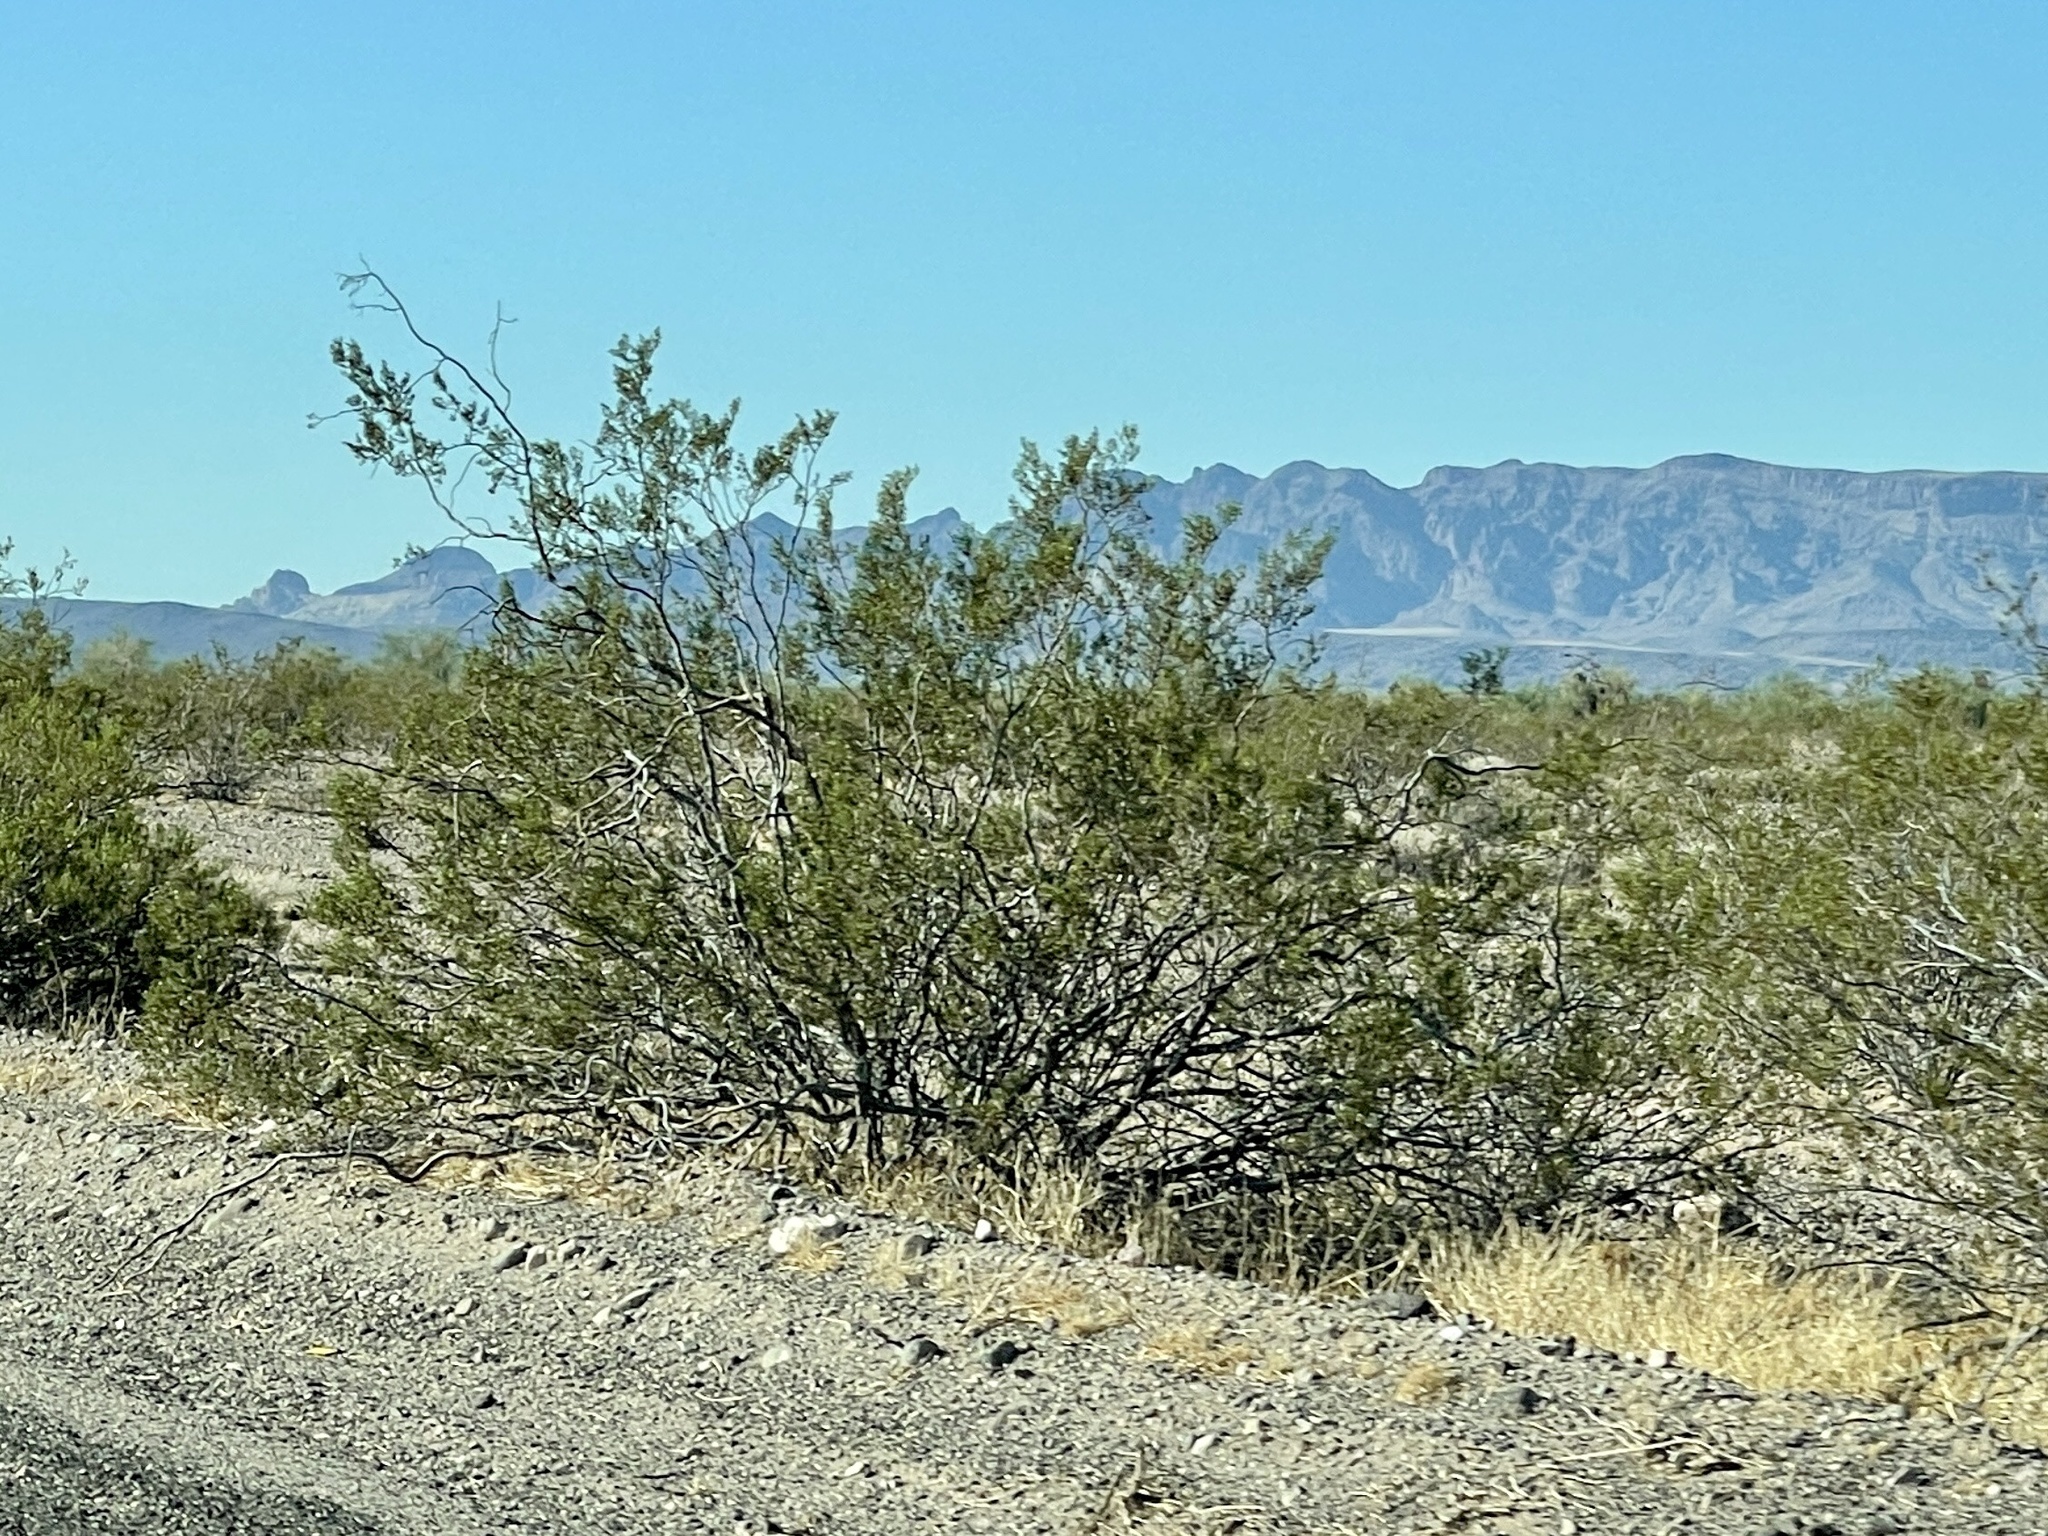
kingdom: Plantae
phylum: Tracheophyta
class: Magnoliopsida
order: Zygophyllales
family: Zygophyllaceae
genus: Larrea
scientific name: Larrea tridentata
